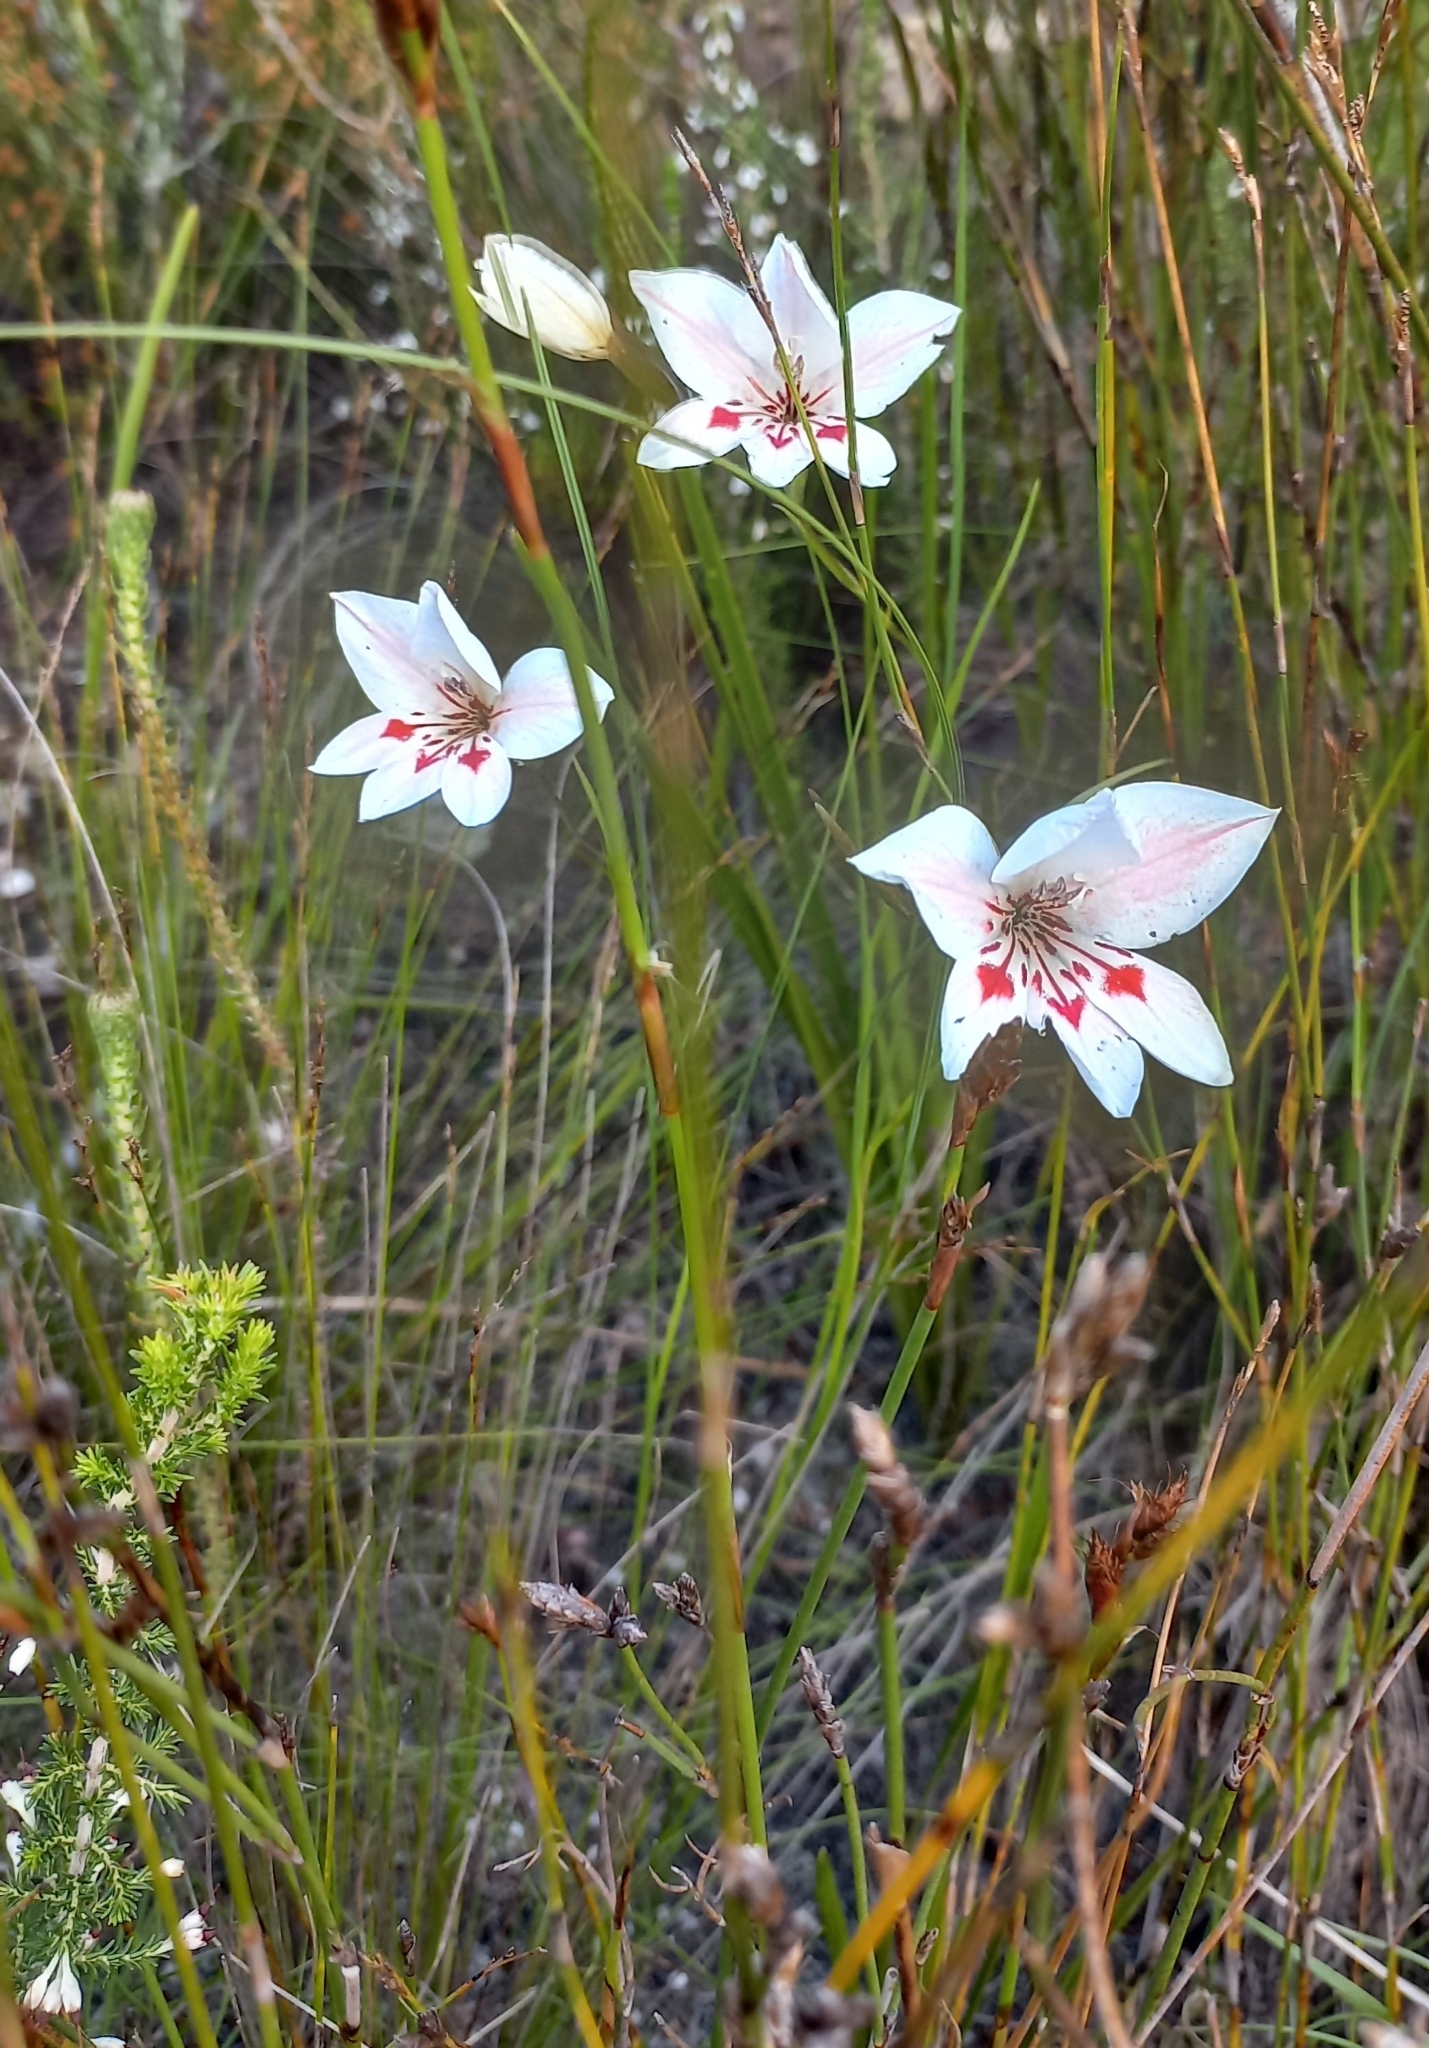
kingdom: Plantae
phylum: Tracheophyta
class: Liliopsida
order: Asparagales
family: Iridaceae
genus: Gladiolus
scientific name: Gladiolus debilis
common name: Painted-lady
